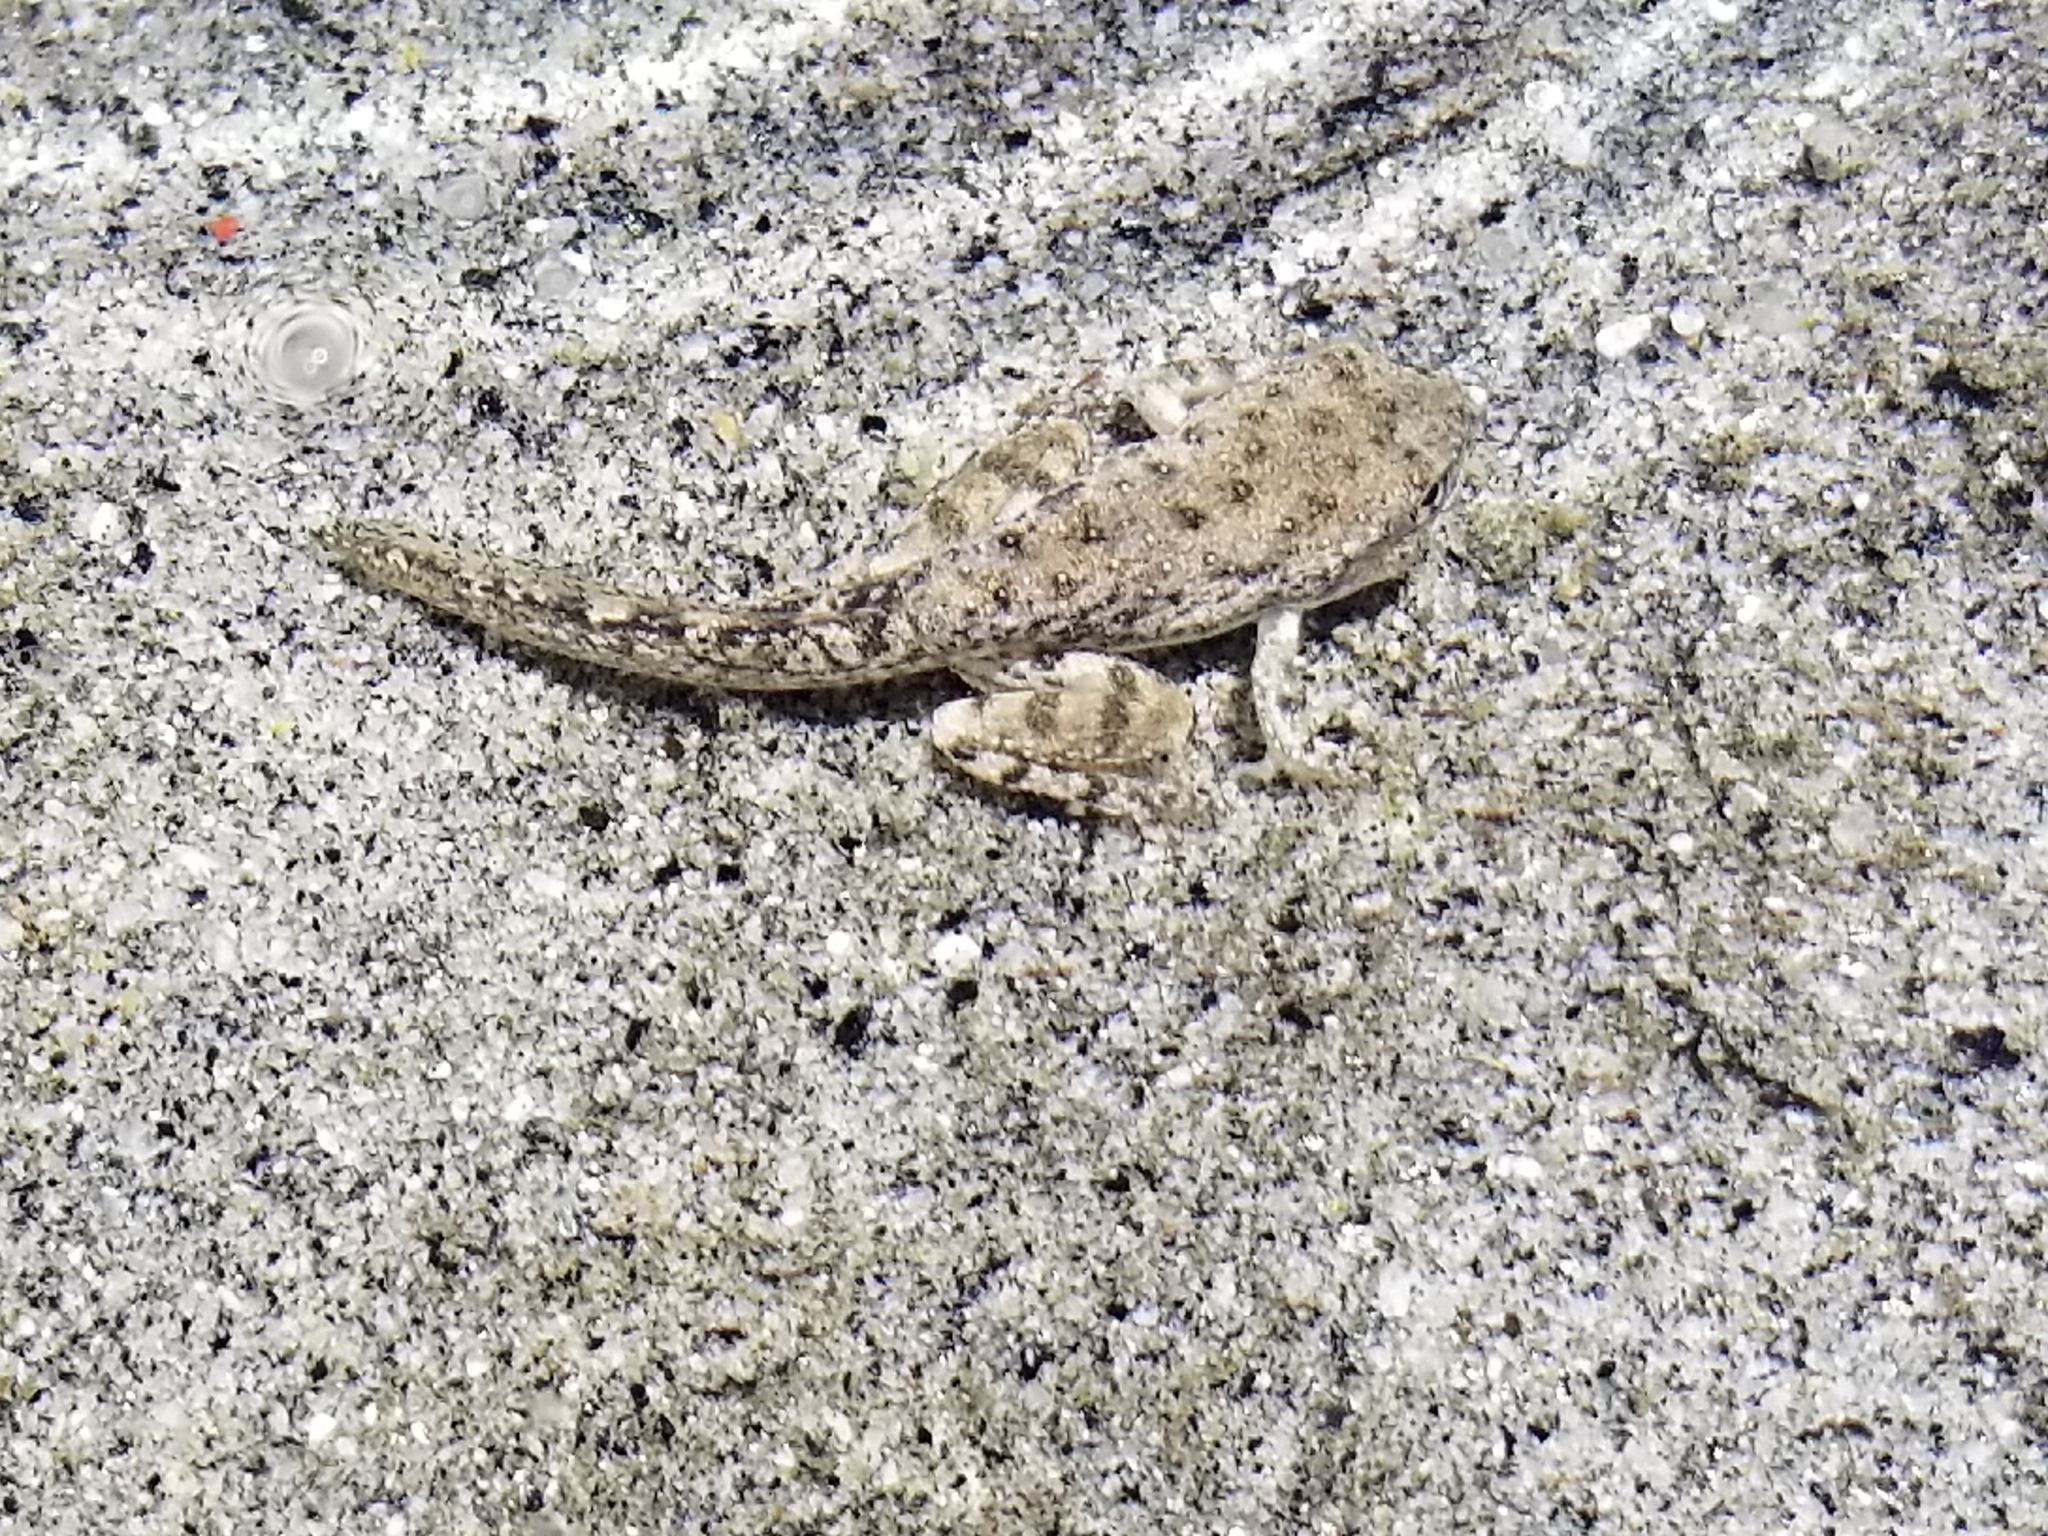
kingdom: Animalia
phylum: Chordata
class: Amphibia
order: Anura
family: Hylidae
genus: Pseudacris
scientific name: Pseudacris cadaverina
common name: California chorus frog
